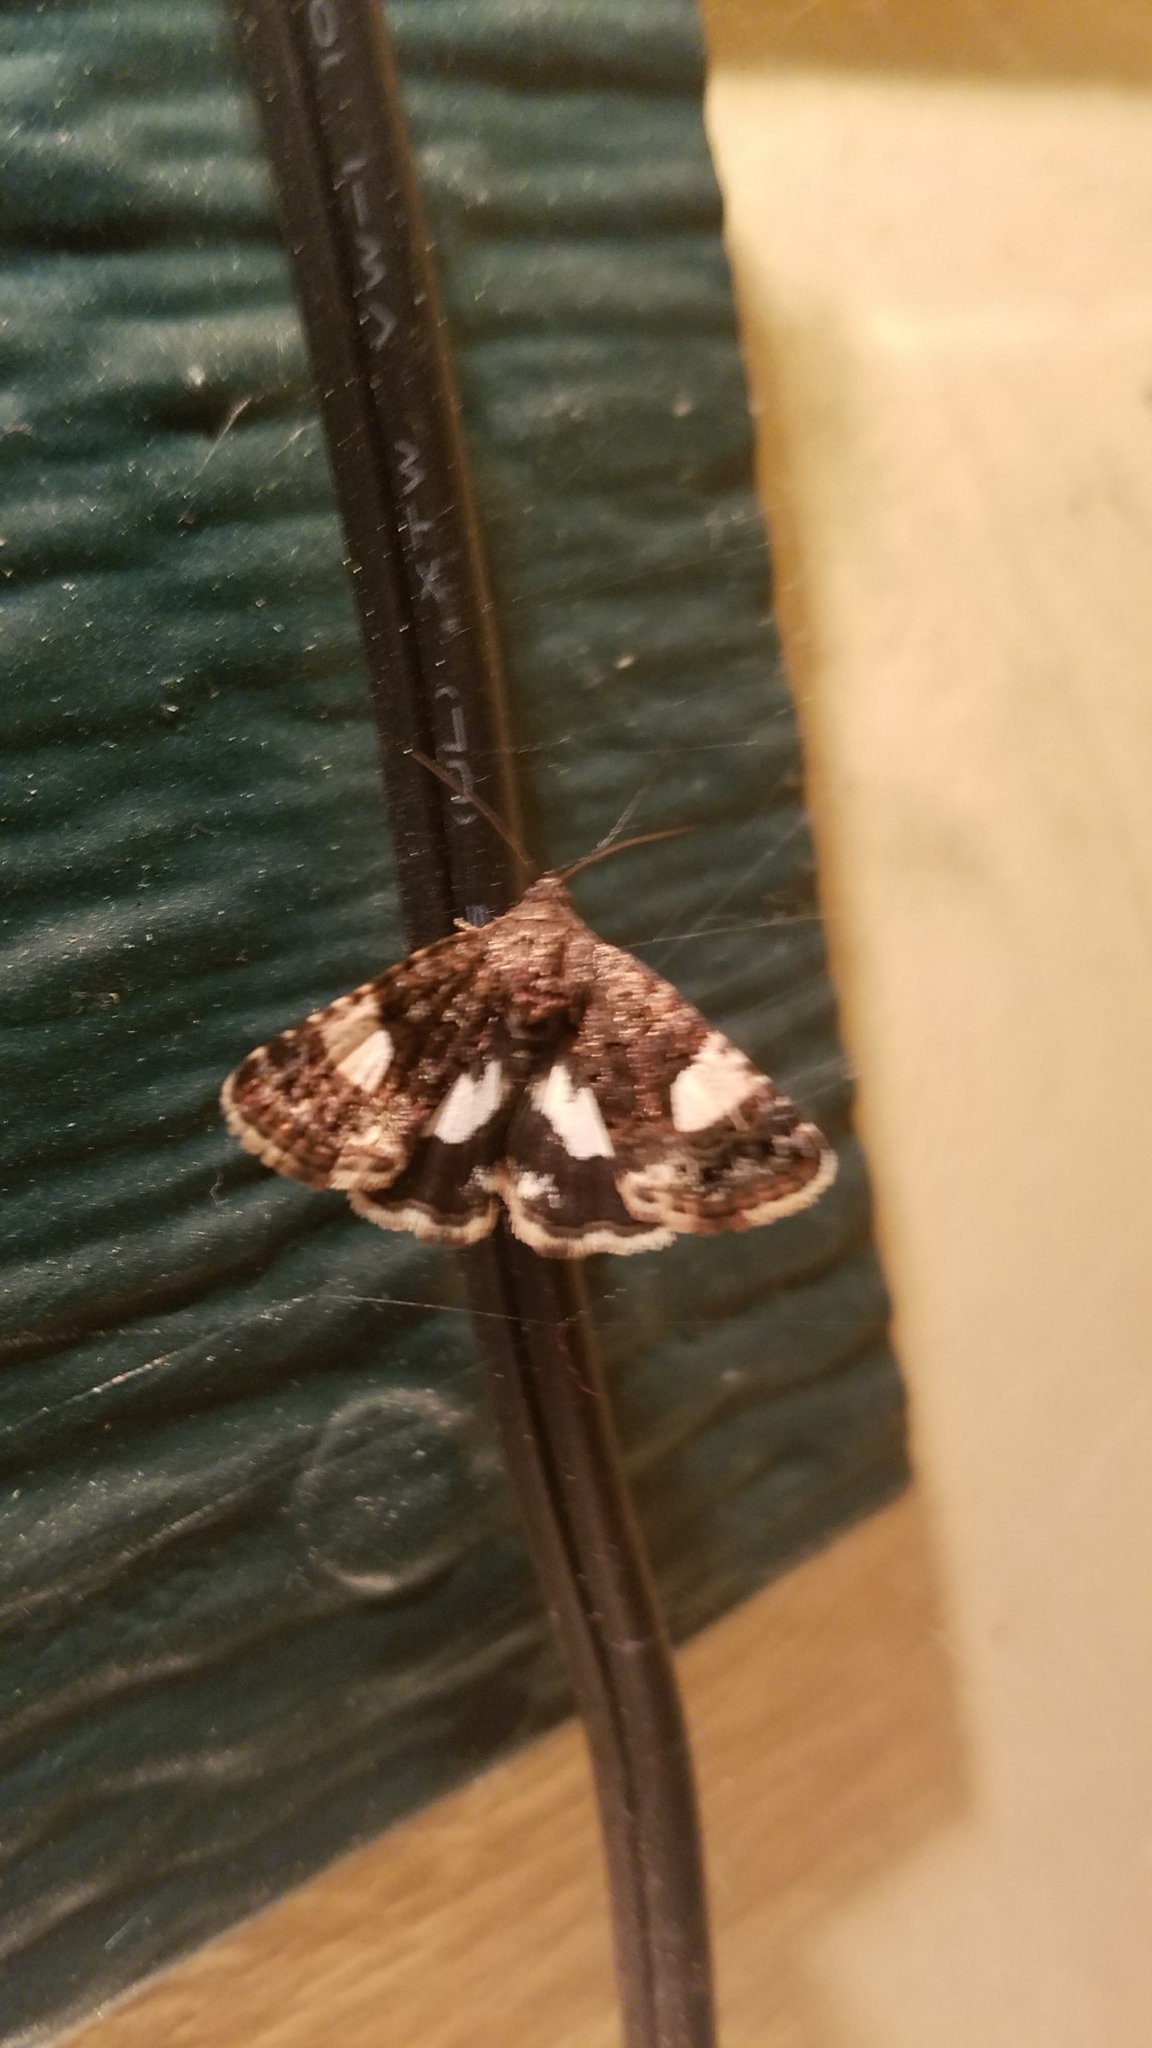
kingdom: Animalia
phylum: Arthropoda
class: Insecta
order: Lepidoptera
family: Erebidae
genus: Tyta
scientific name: Tyta luctuosa
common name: Four-spotted
